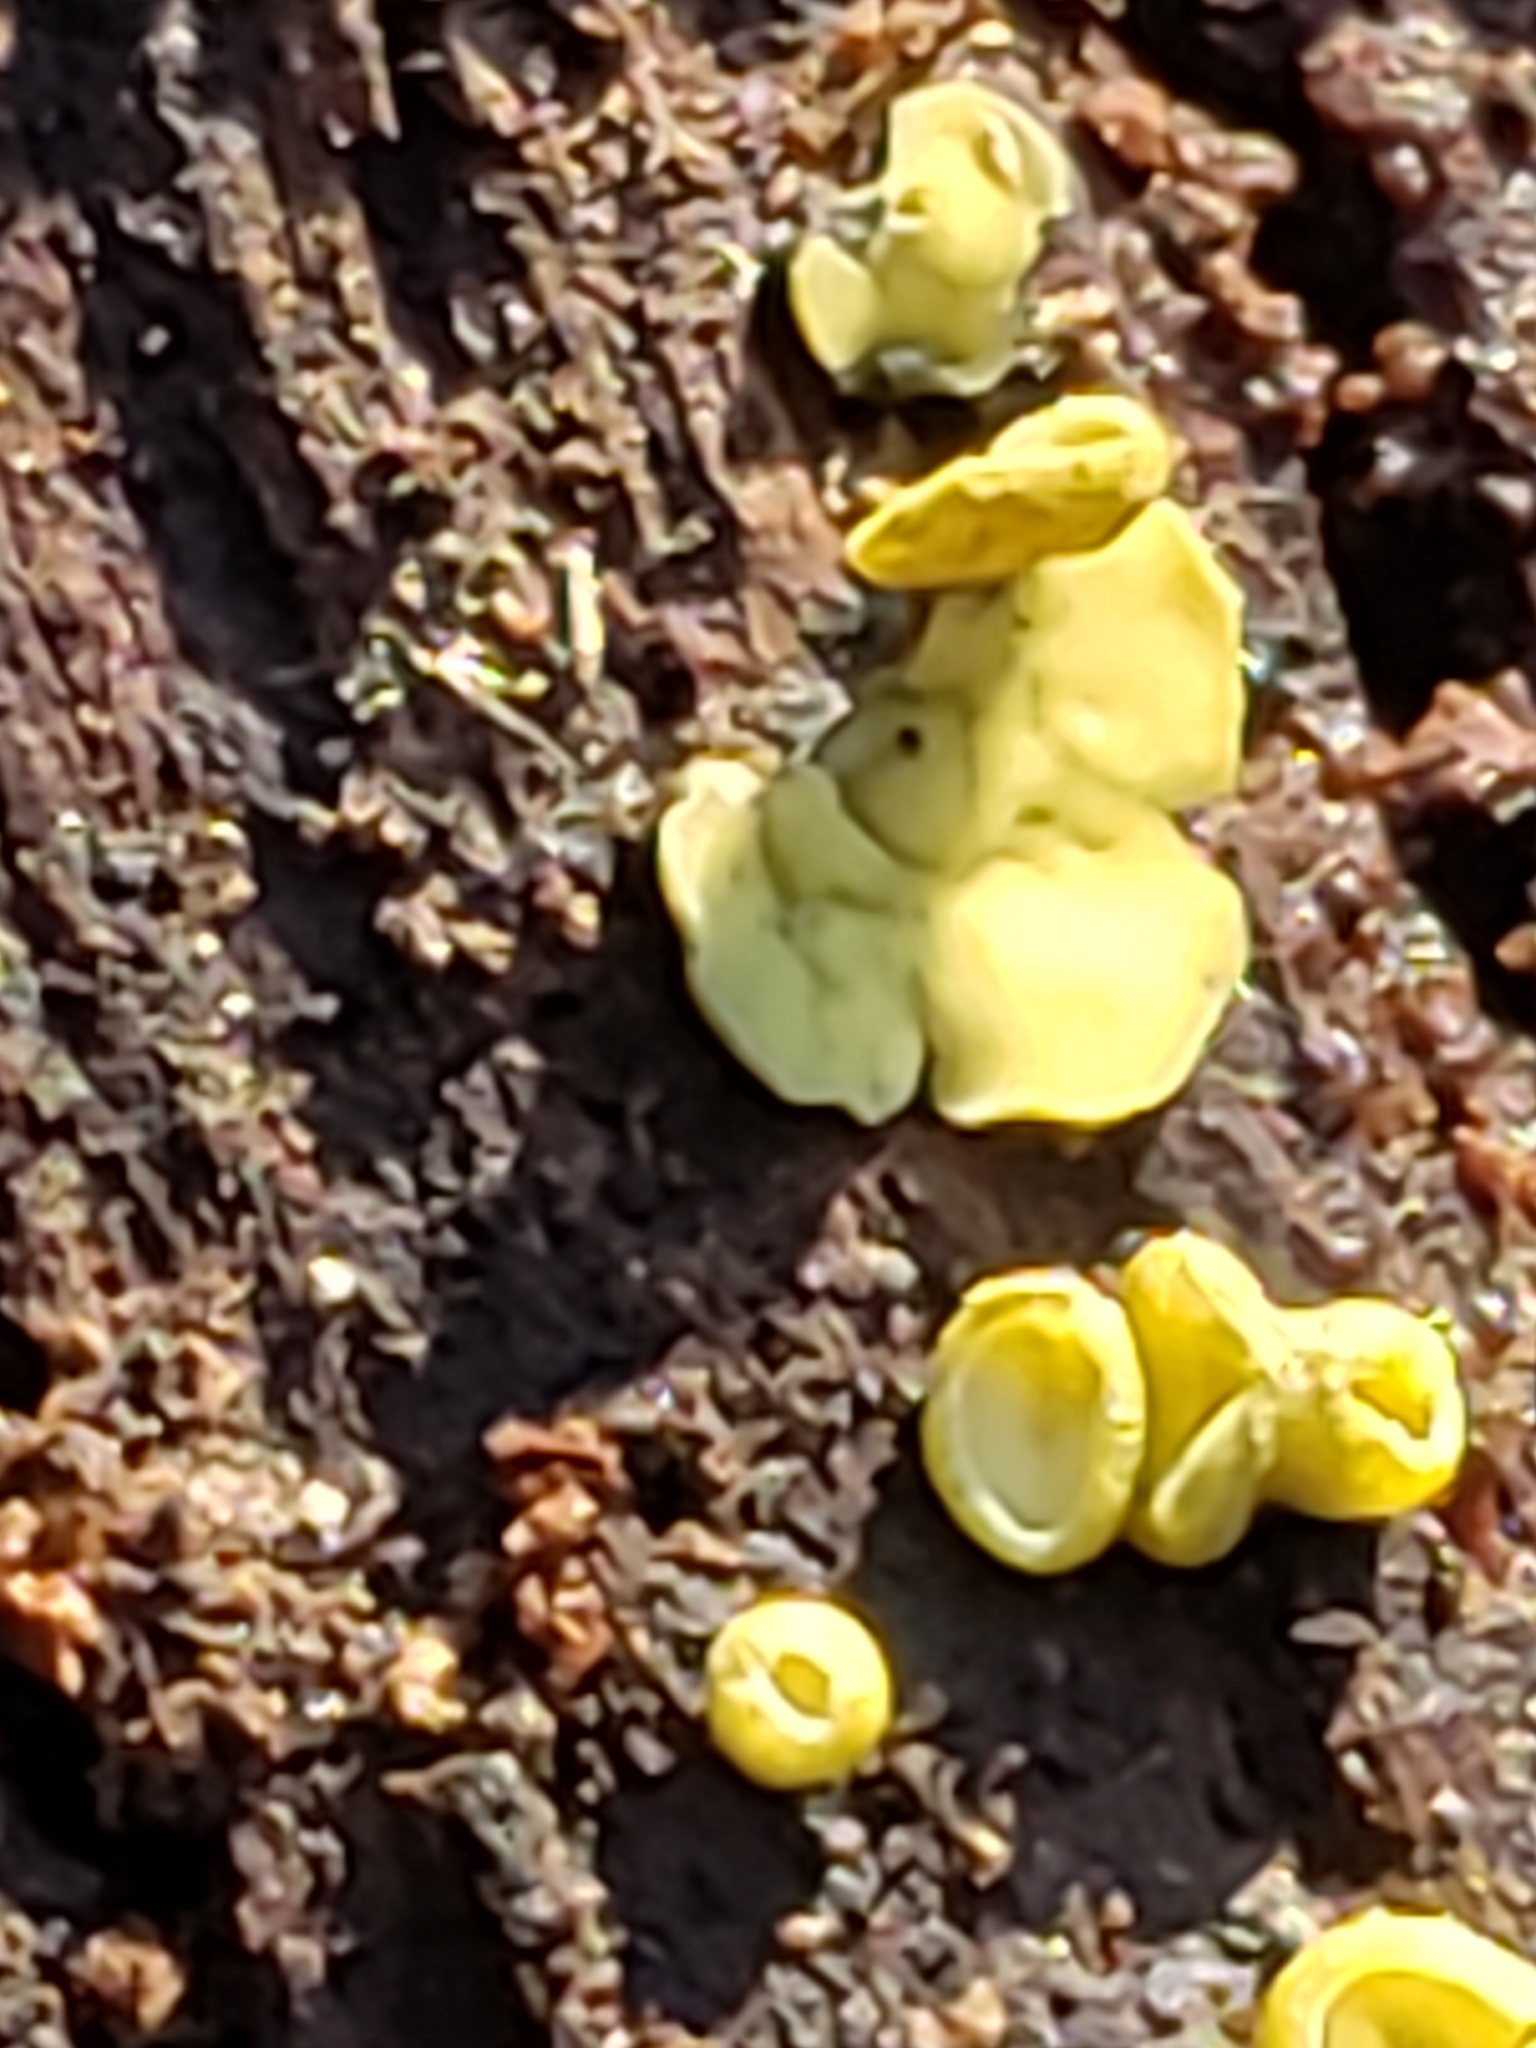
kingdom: Fungi
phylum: Ascomycota
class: Leotiomycetes
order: Helotiales
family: Chlorospleniaceae
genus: Chlorosplenium
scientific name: Chlorosplenium chlora
